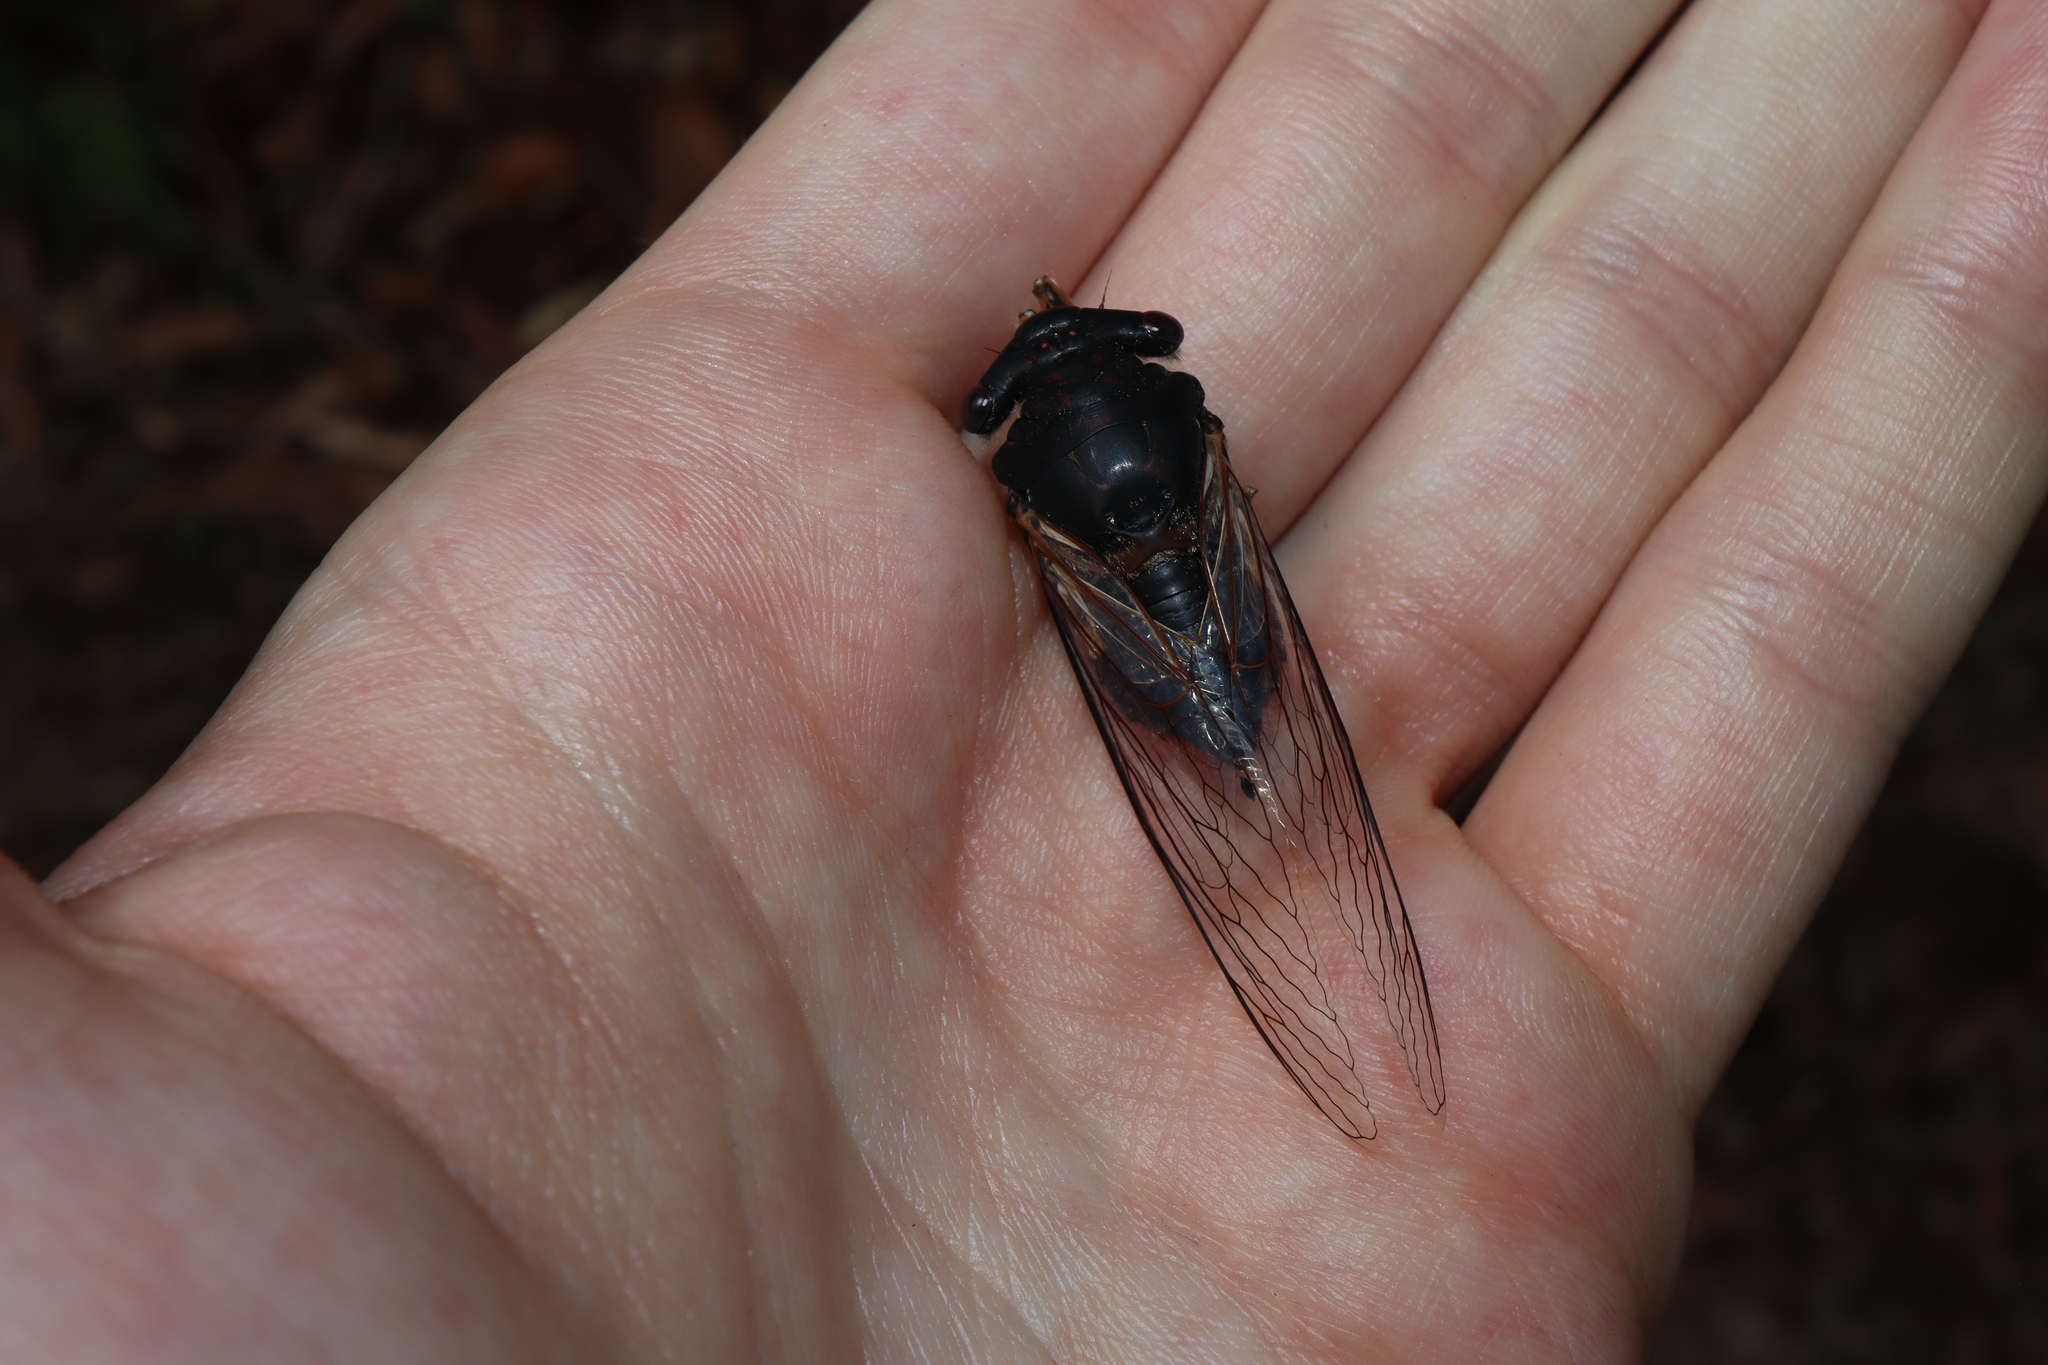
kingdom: Animalia
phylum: Arthropoda
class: Insecta
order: Hemiptera
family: Cicadidae
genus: Psaltoda
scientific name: Psaltoda harrisii
